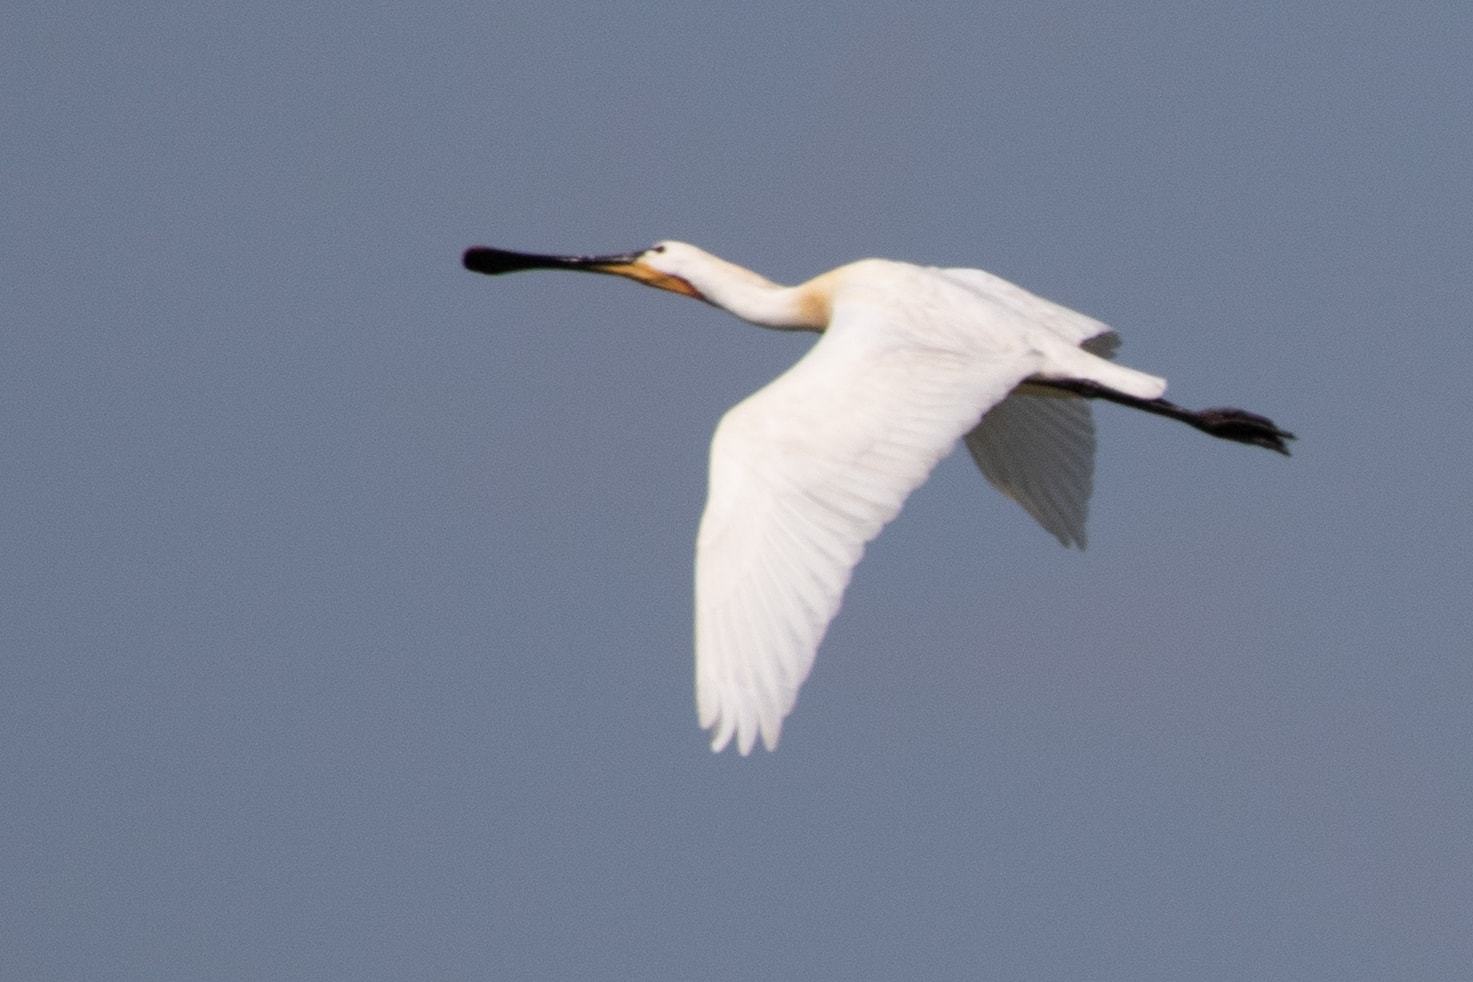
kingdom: Animalia
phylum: Chordata
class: Aves
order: Pelecaniformes
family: Threskiornithidae
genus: Platalea
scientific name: Platalea leucorodia
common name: Eurasian spoonbill
